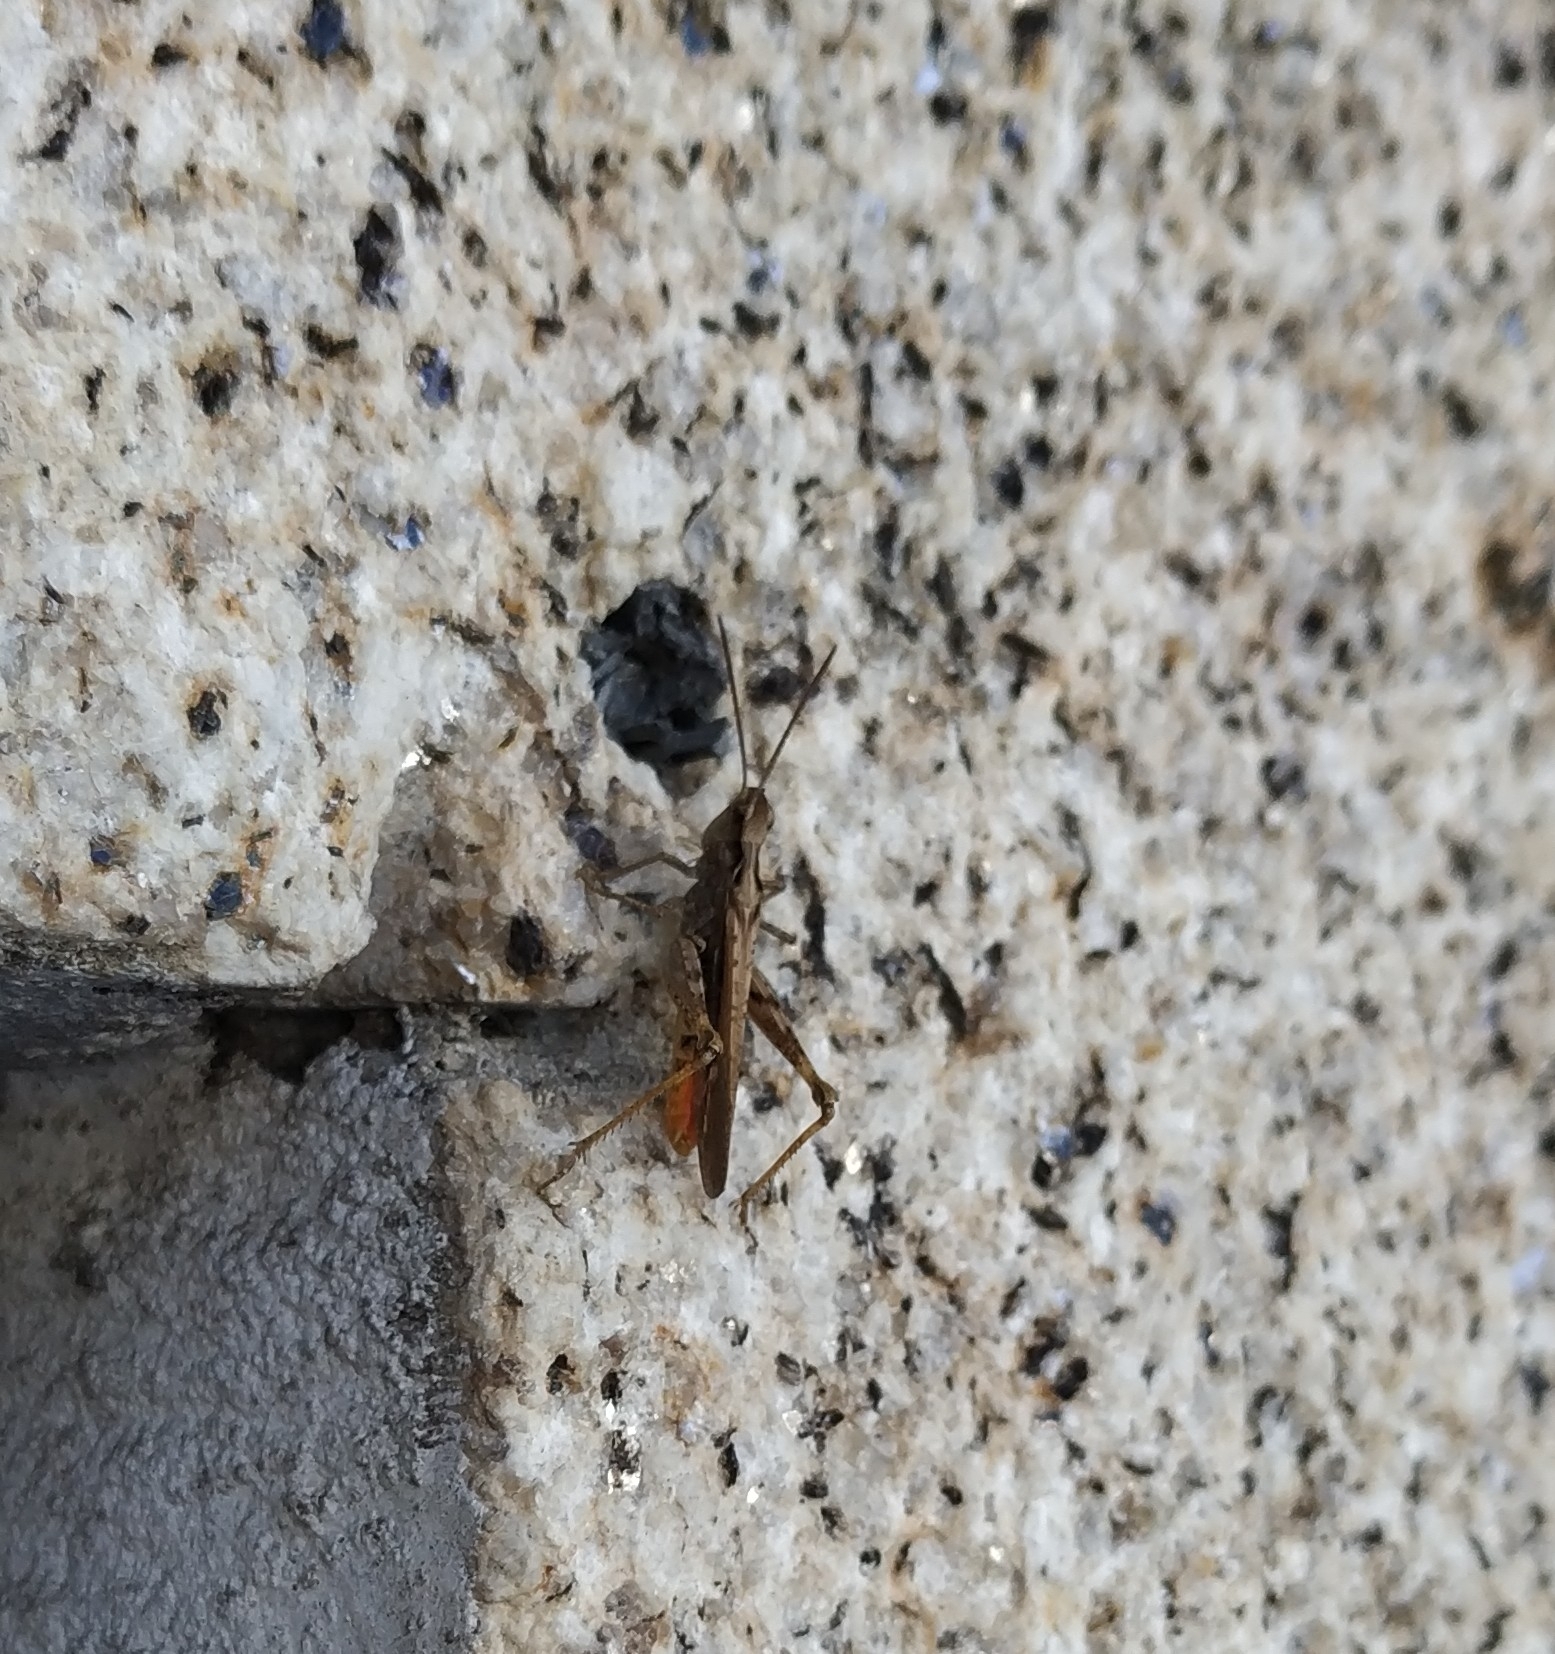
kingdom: Animalia
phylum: Arthropoda
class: Insecta
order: Orthoptera
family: Acrididae
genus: Chorthippus
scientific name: Chorthippus jacobsi
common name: Iberian field grasshopper
